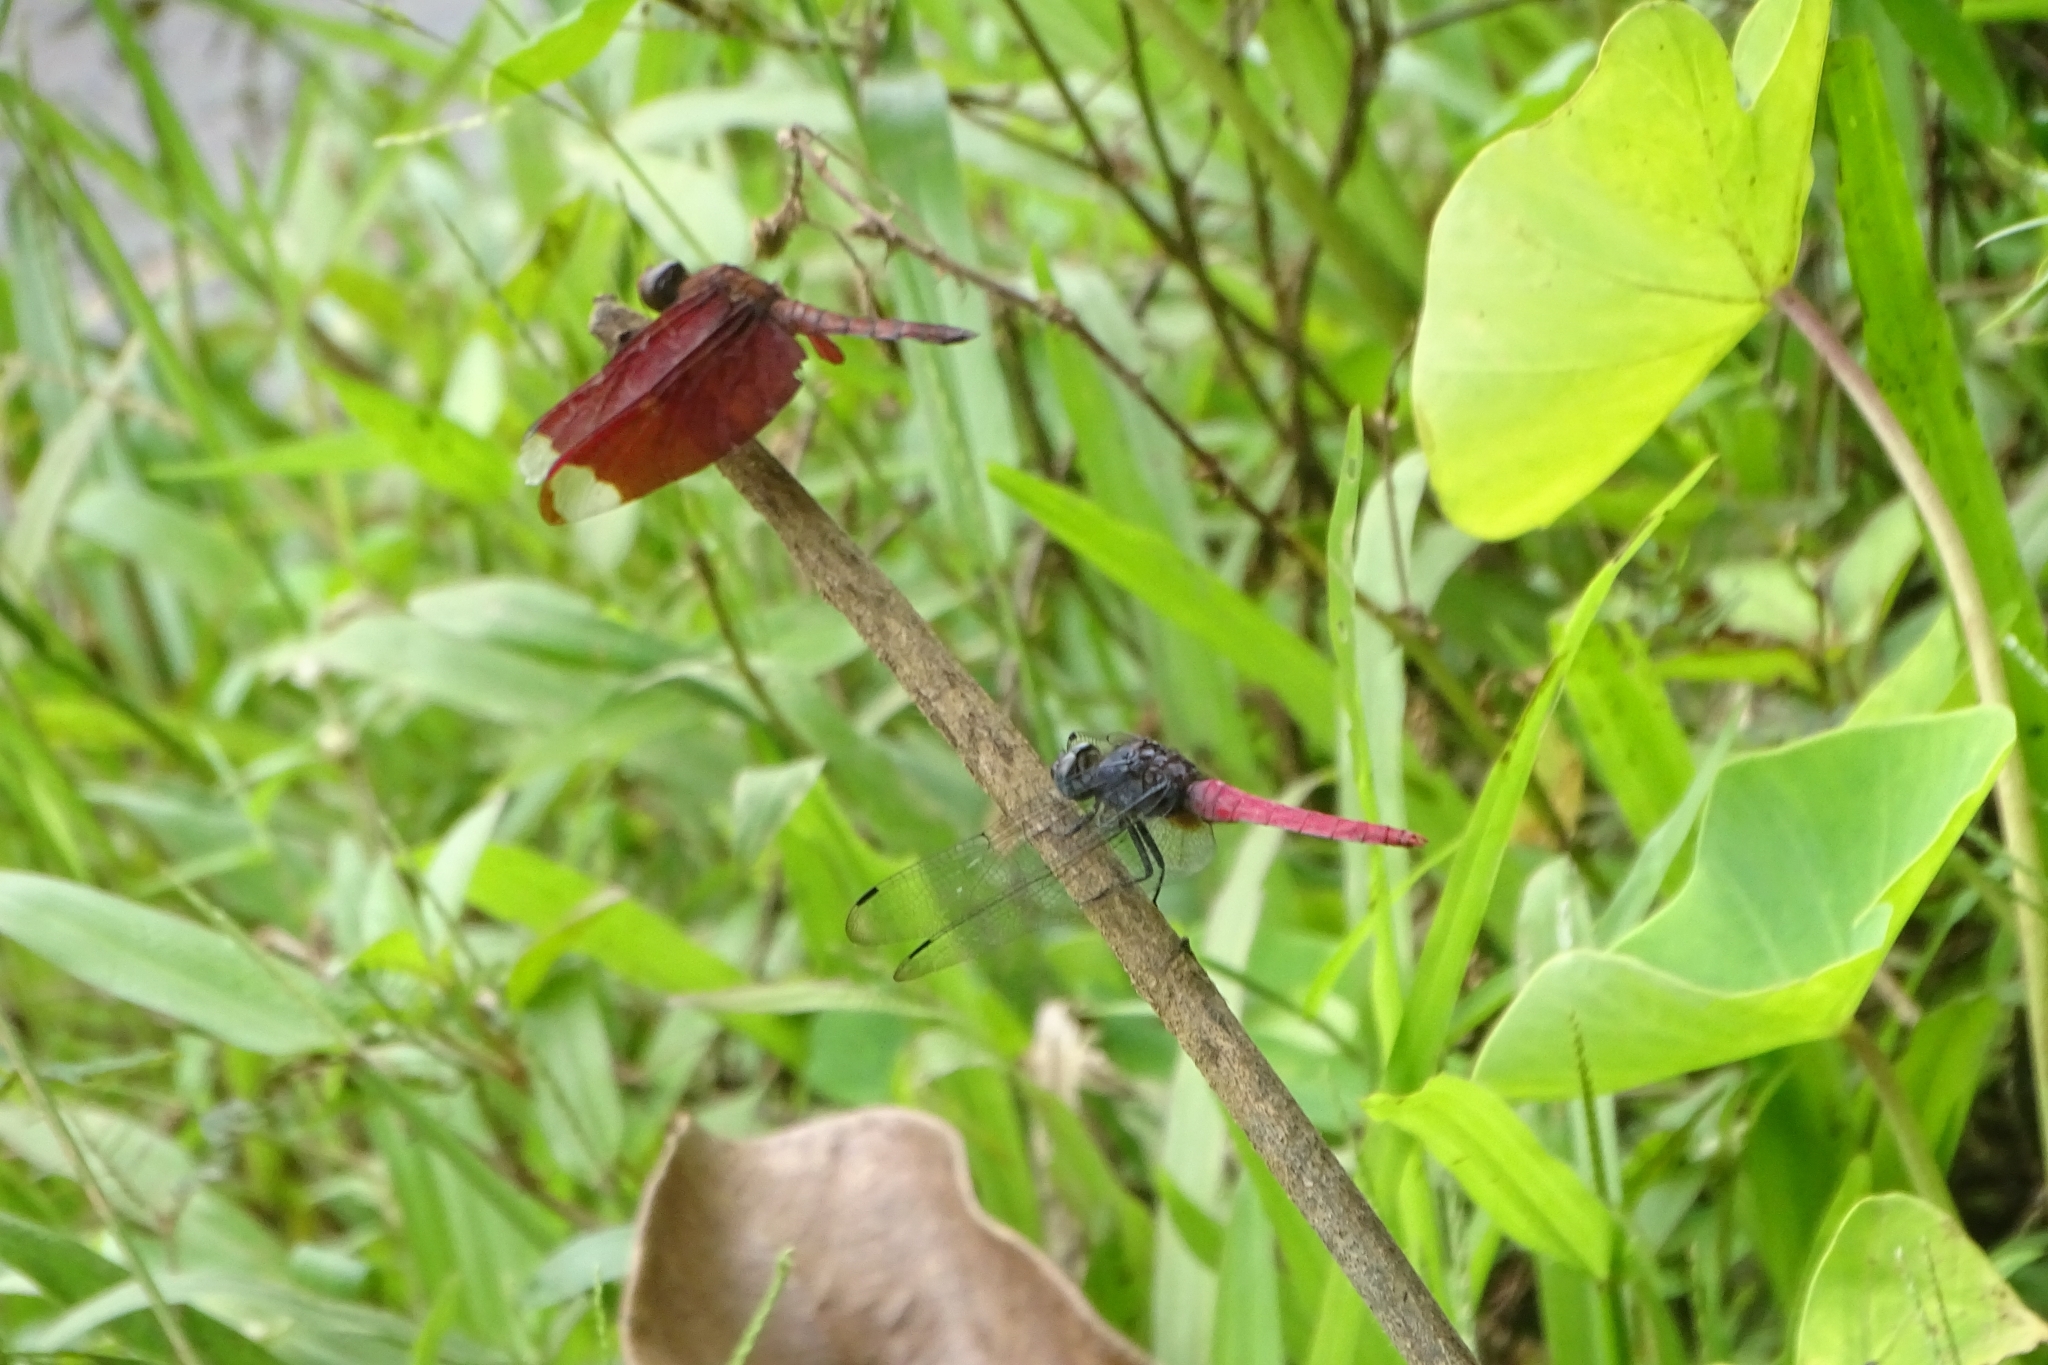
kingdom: Animalia
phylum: Arthropoda
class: Insecta
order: Odonata
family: Libellulidae
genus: Orthetrum
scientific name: Orthetrum pruinosum
